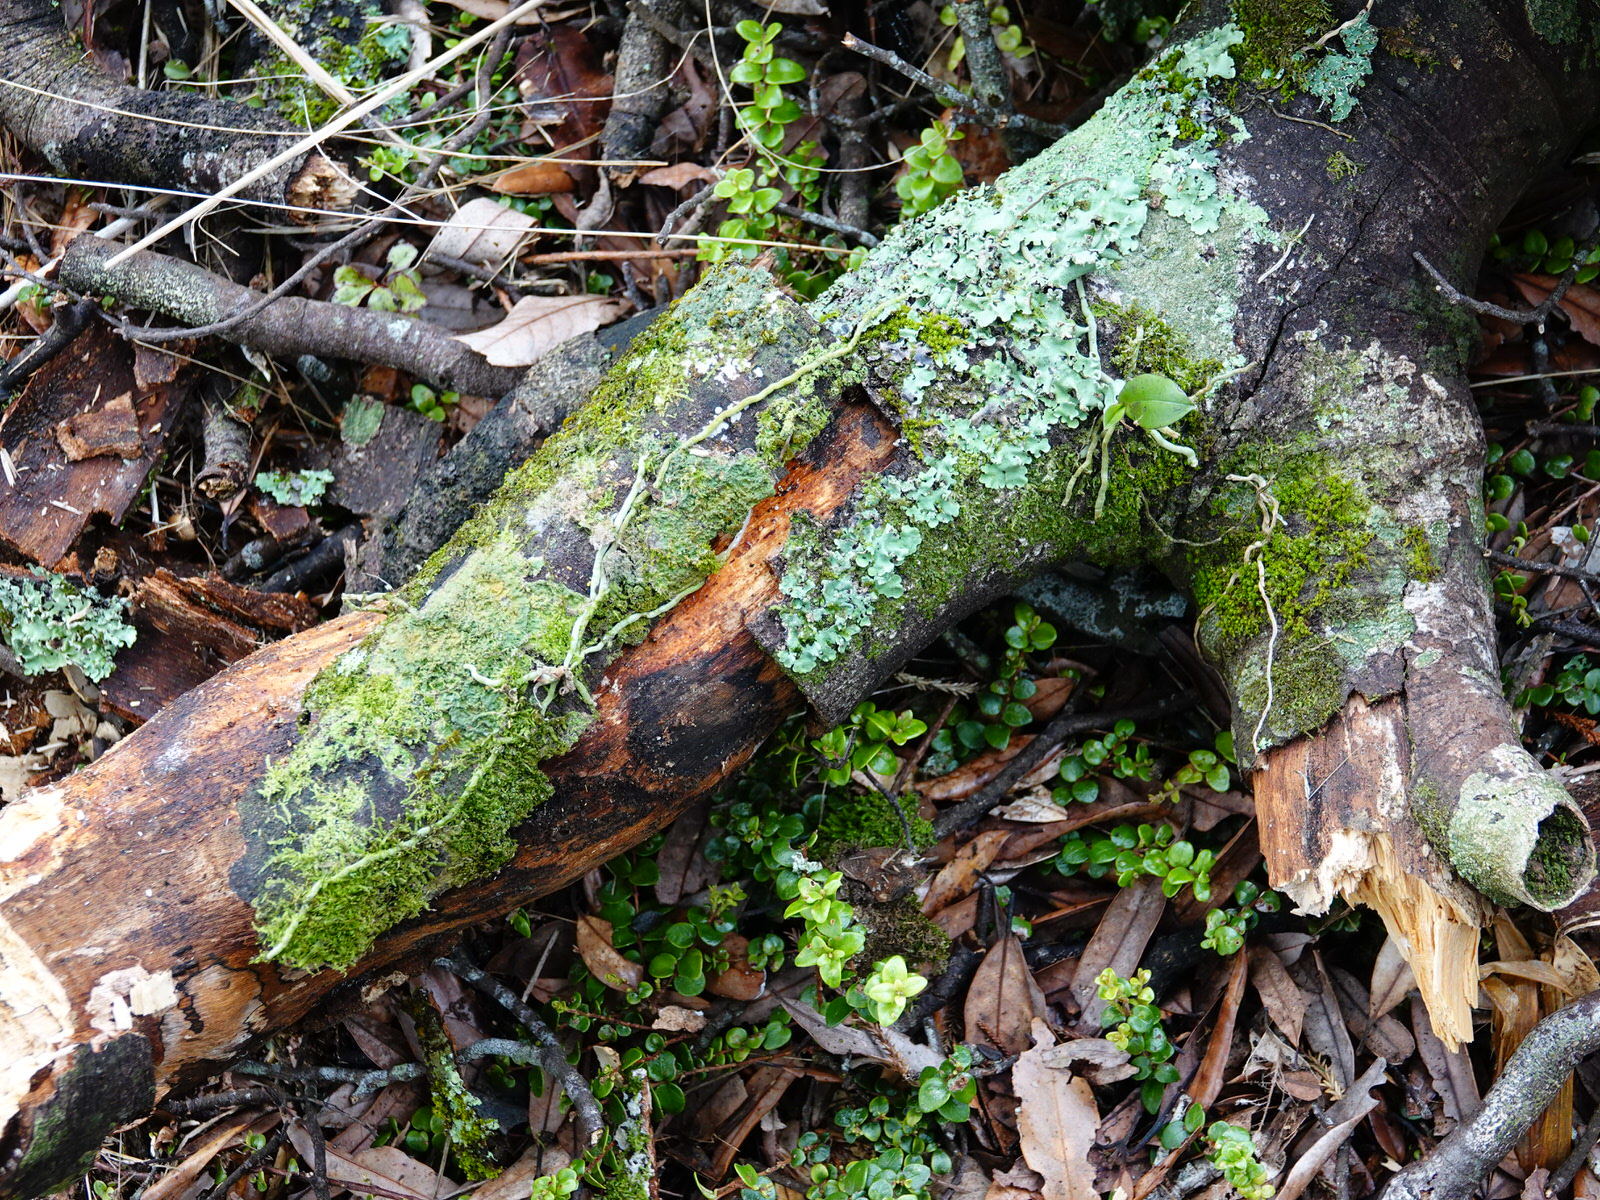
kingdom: Plantae
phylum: Tracheophyta
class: Liliopsida
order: Asparagales
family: Orchidaceae
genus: Drymoanthus
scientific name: Drymoanthus adversus
